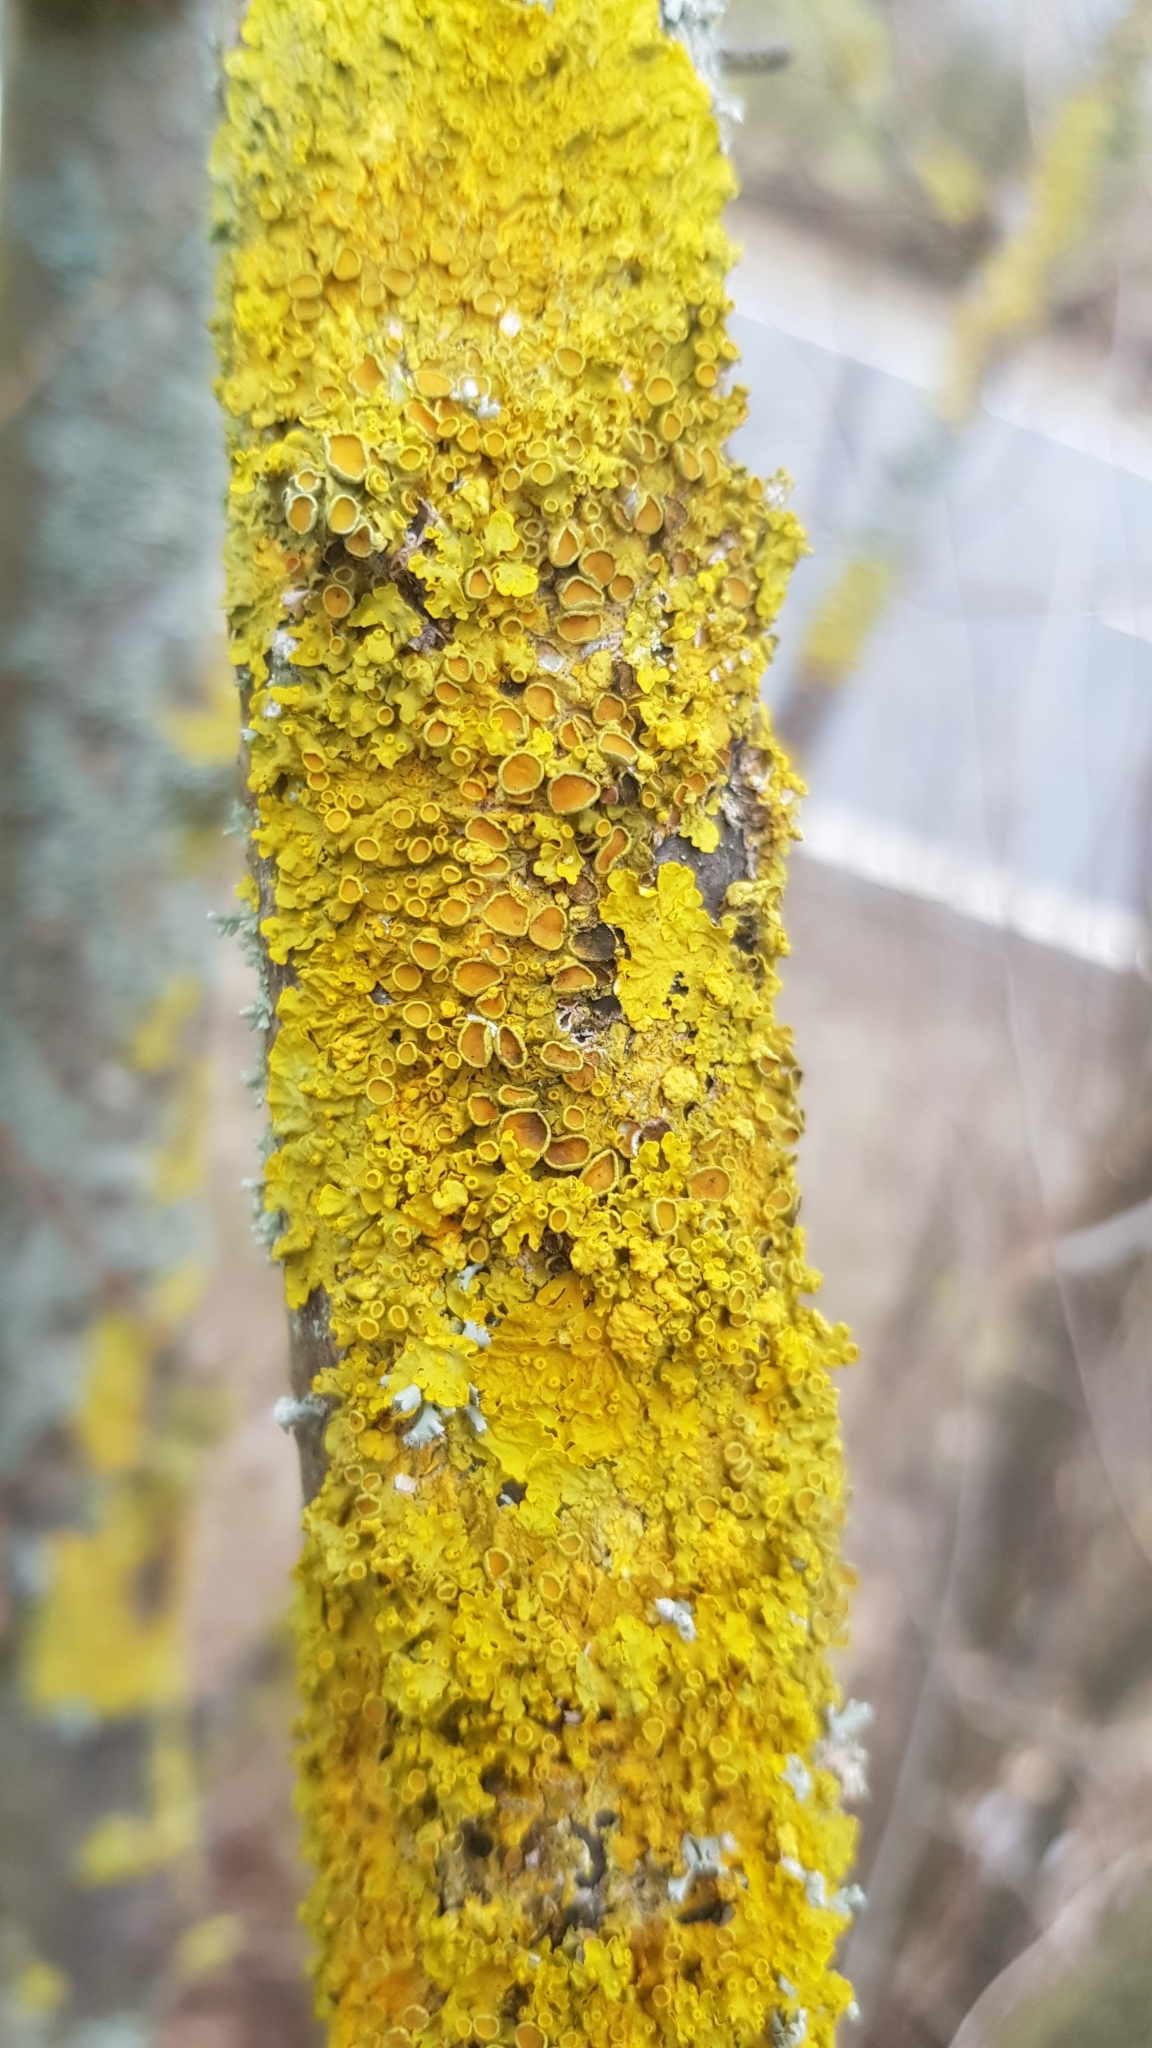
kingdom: Fungi
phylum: Ascomycota
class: Lecanoromycetes
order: Teloschistales
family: Teloschistaceae
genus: Xanthoria
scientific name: Xanthoria parietina
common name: Common orange lichen
